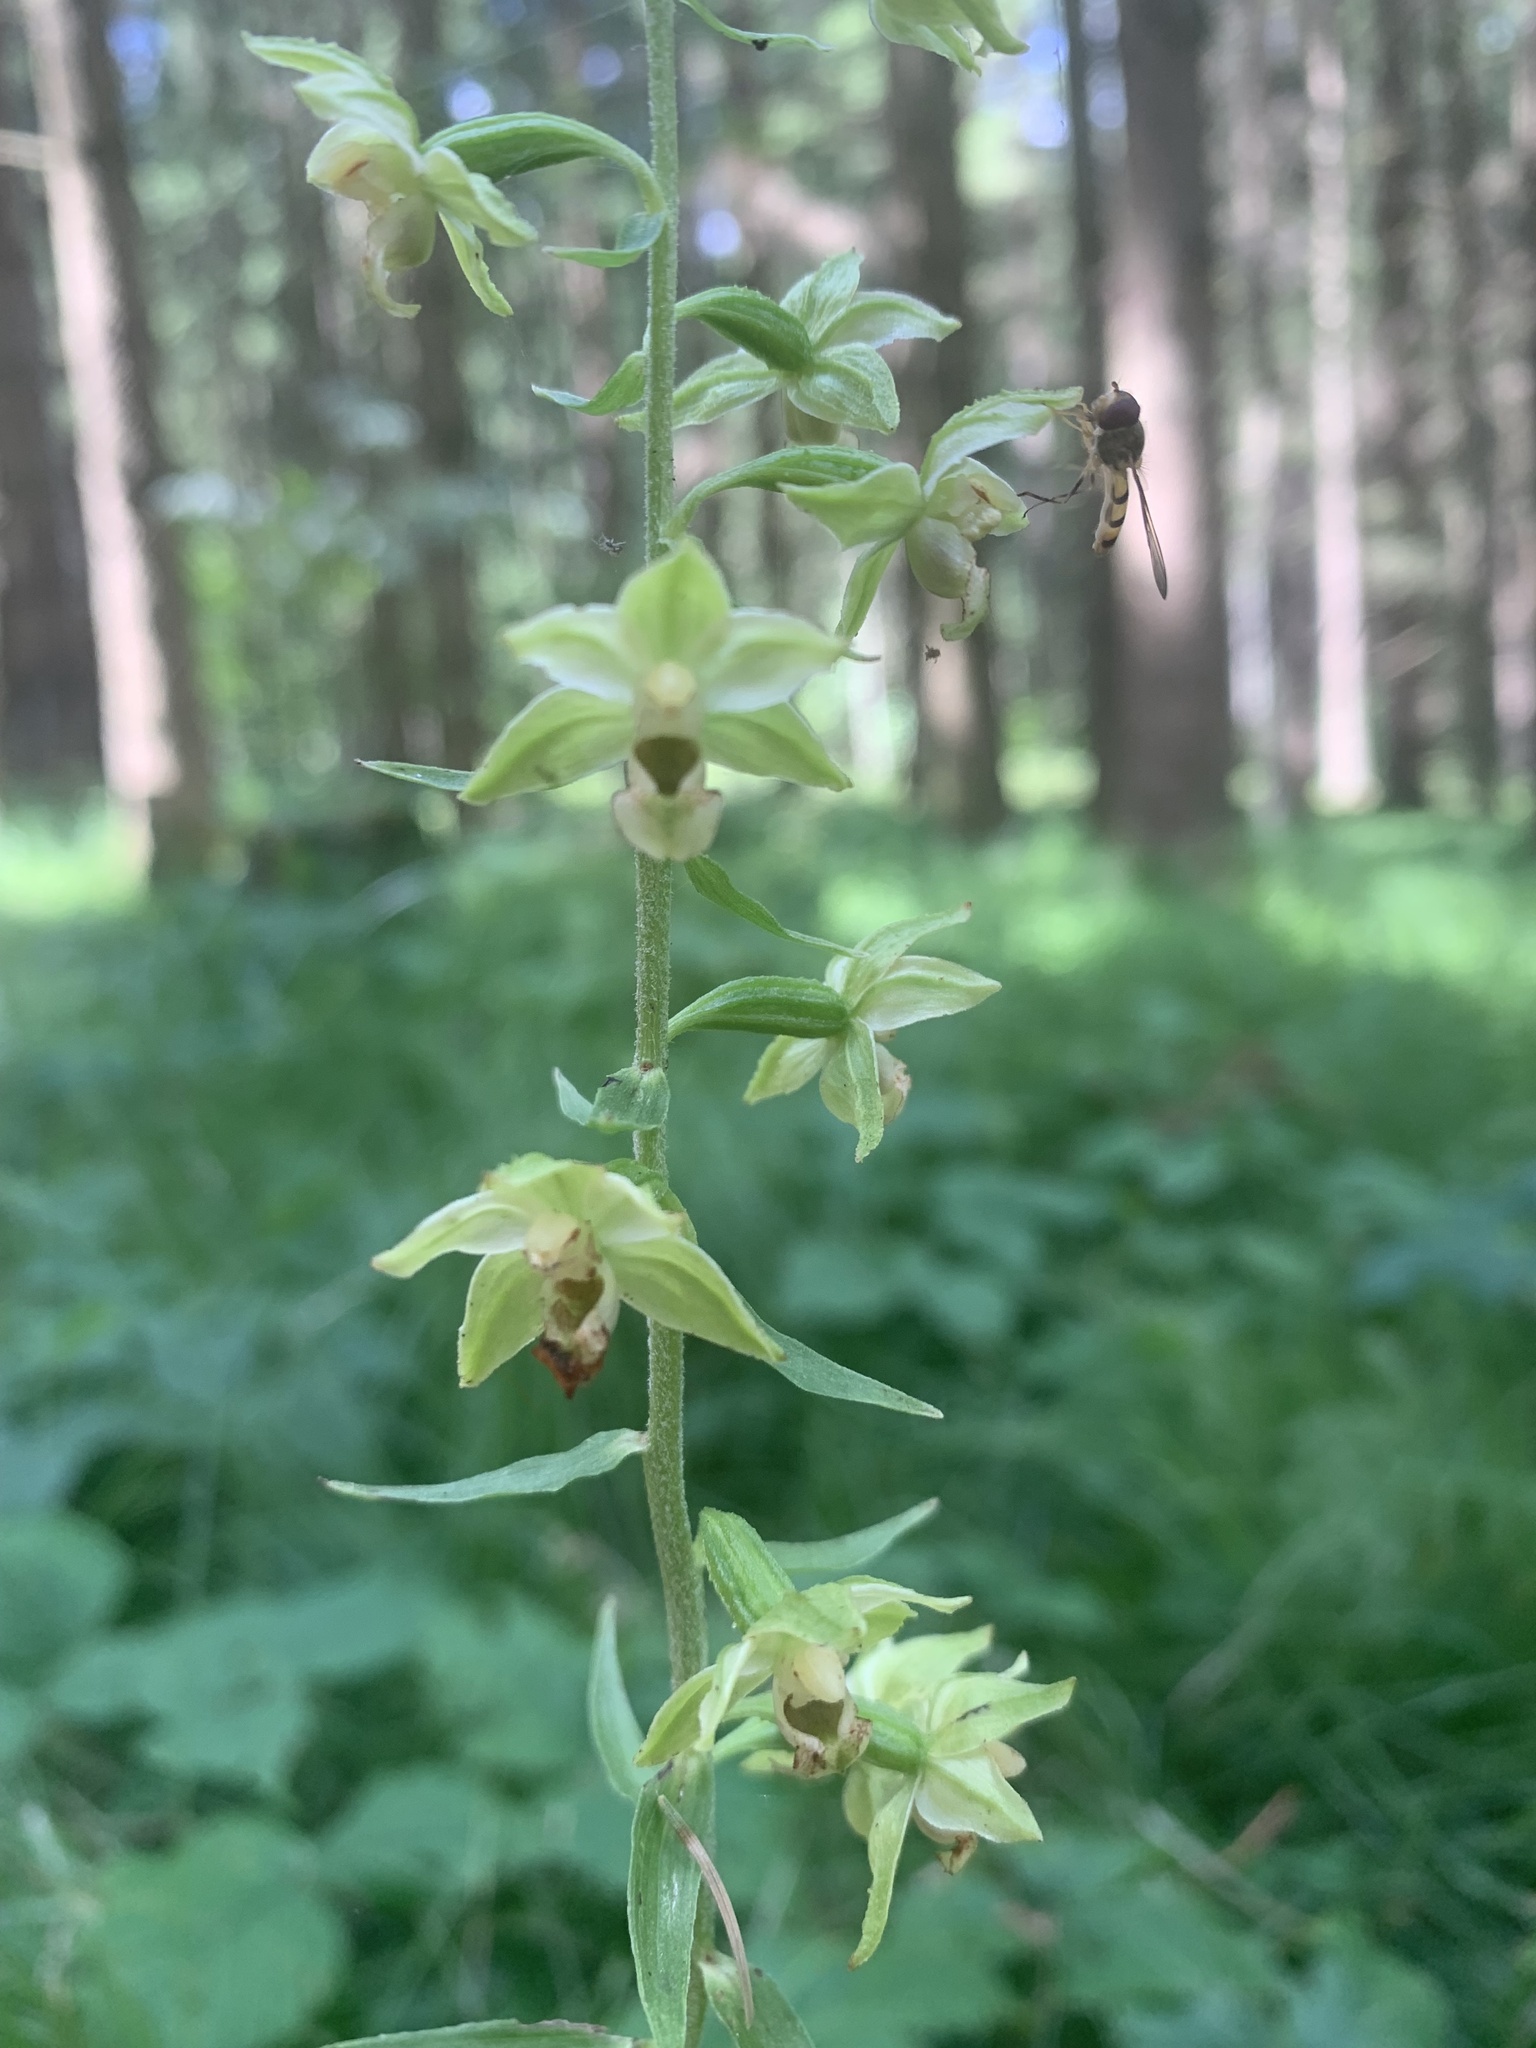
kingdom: Plantae
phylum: Tracheophyta
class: Liliopsida
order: Asparagales
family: Orchidaceae
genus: Epipactis
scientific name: Epipactis helleborine
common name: Broad-leaved helleborine
